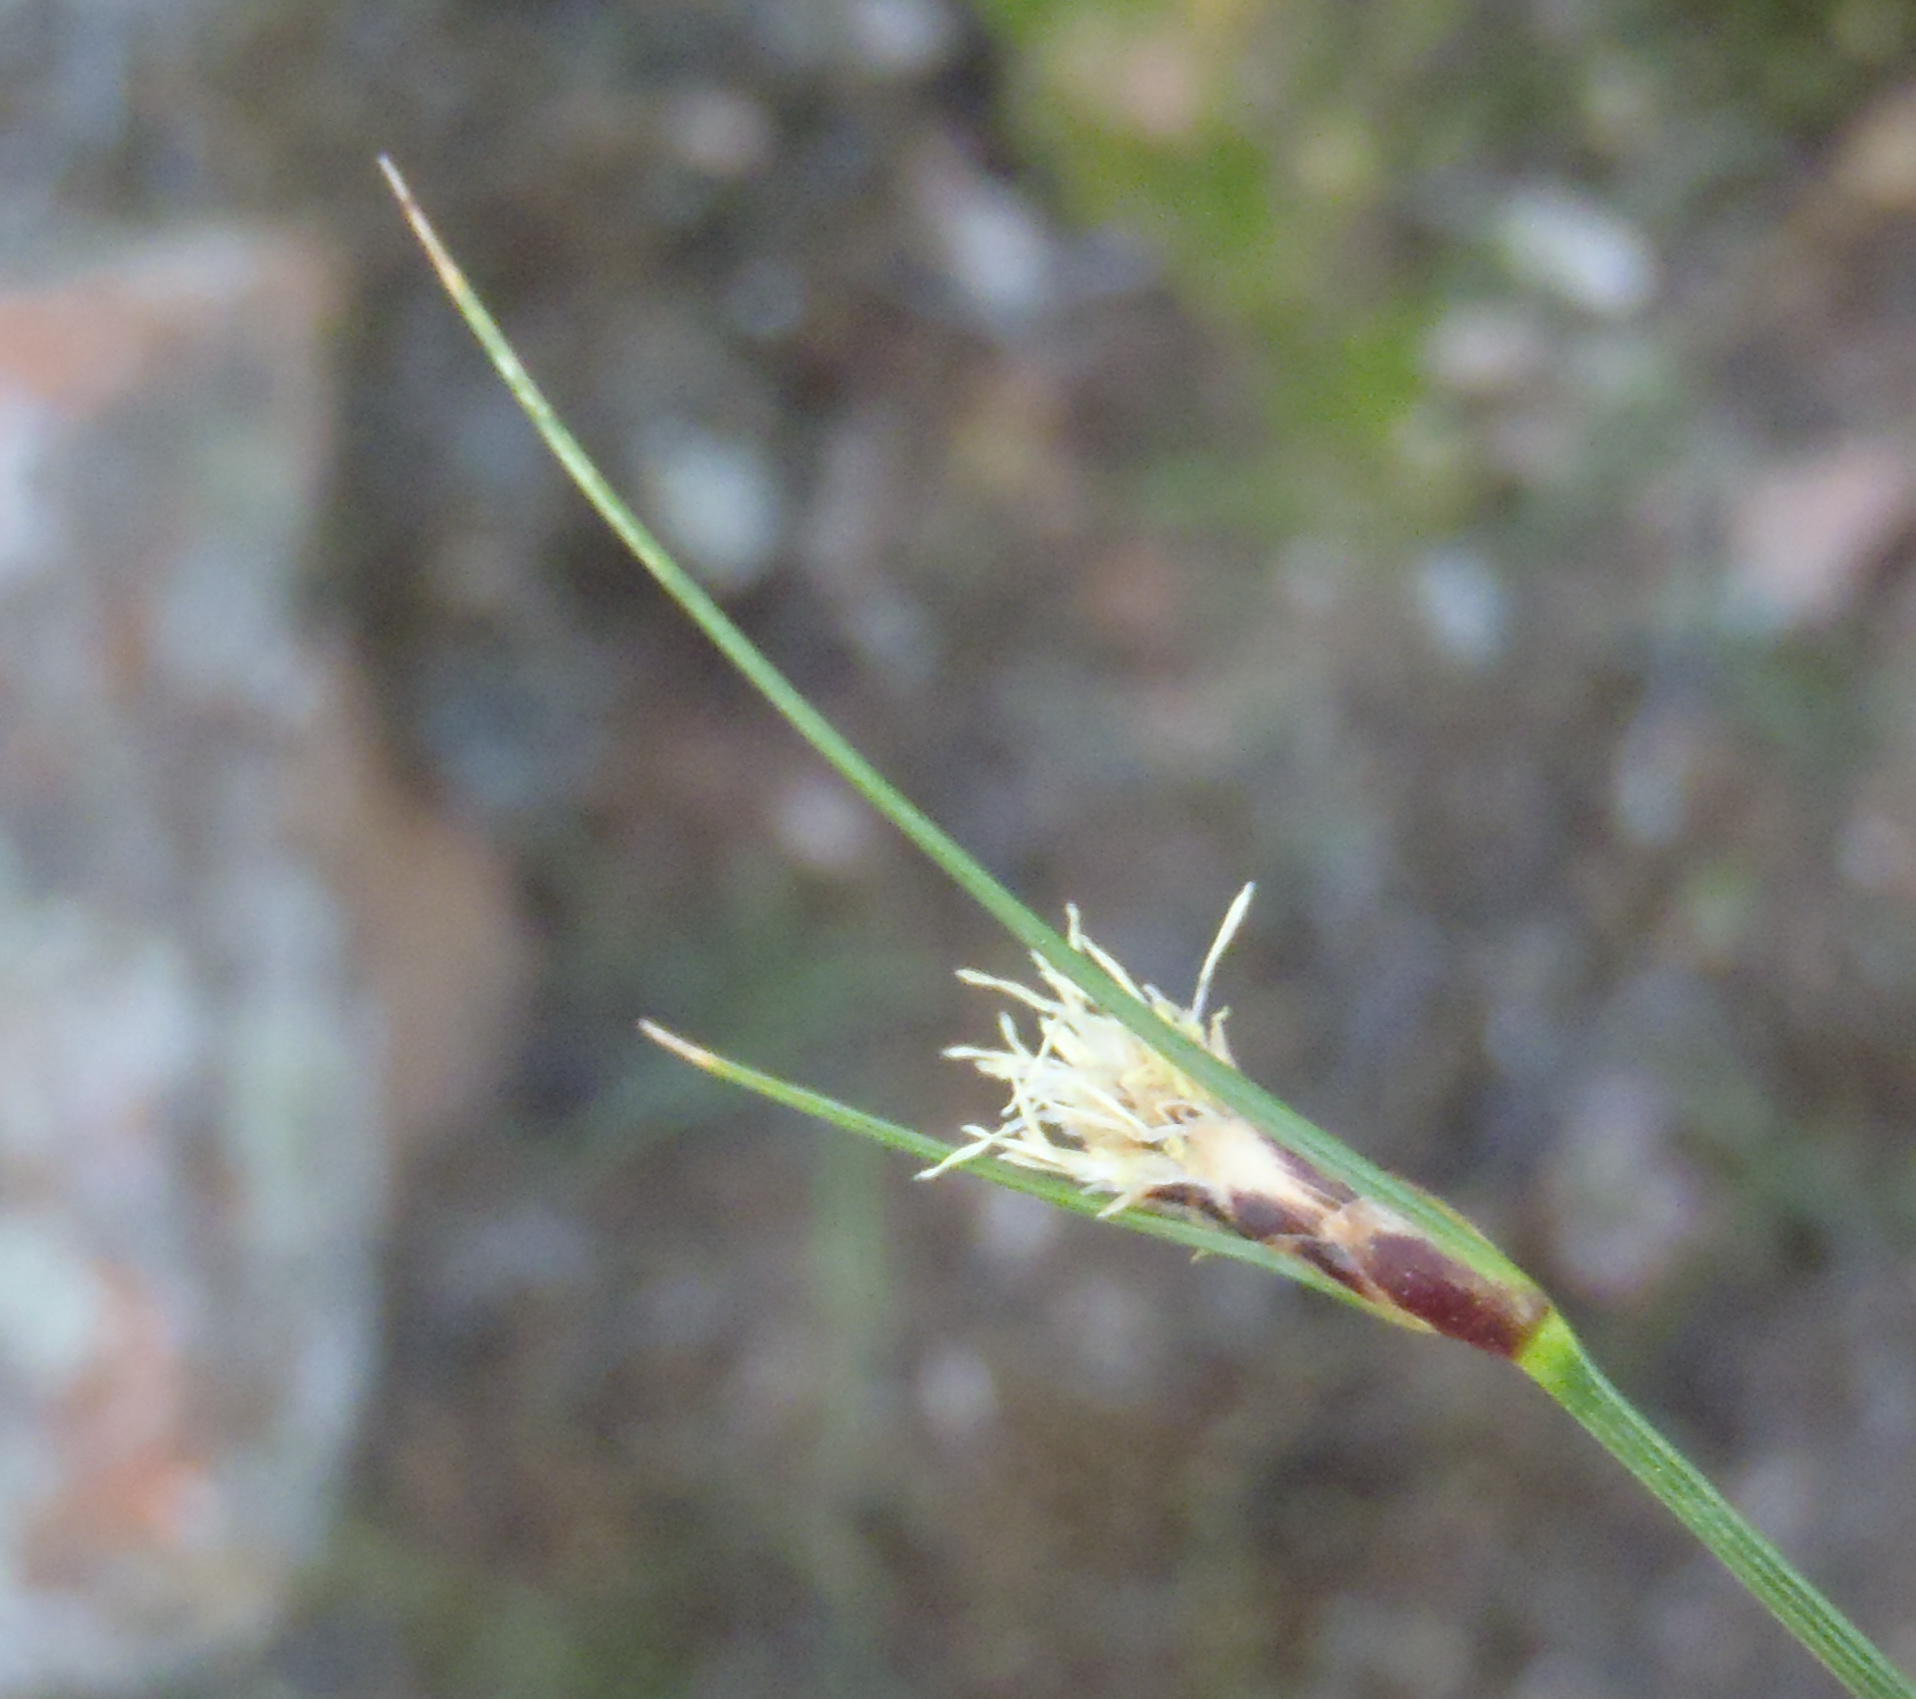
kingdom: Plantae
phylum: Tracheophyta
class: Liliopsida
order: Poales
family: Cyperaceae
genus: Ficinia
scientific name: Ficinia nigrescens
